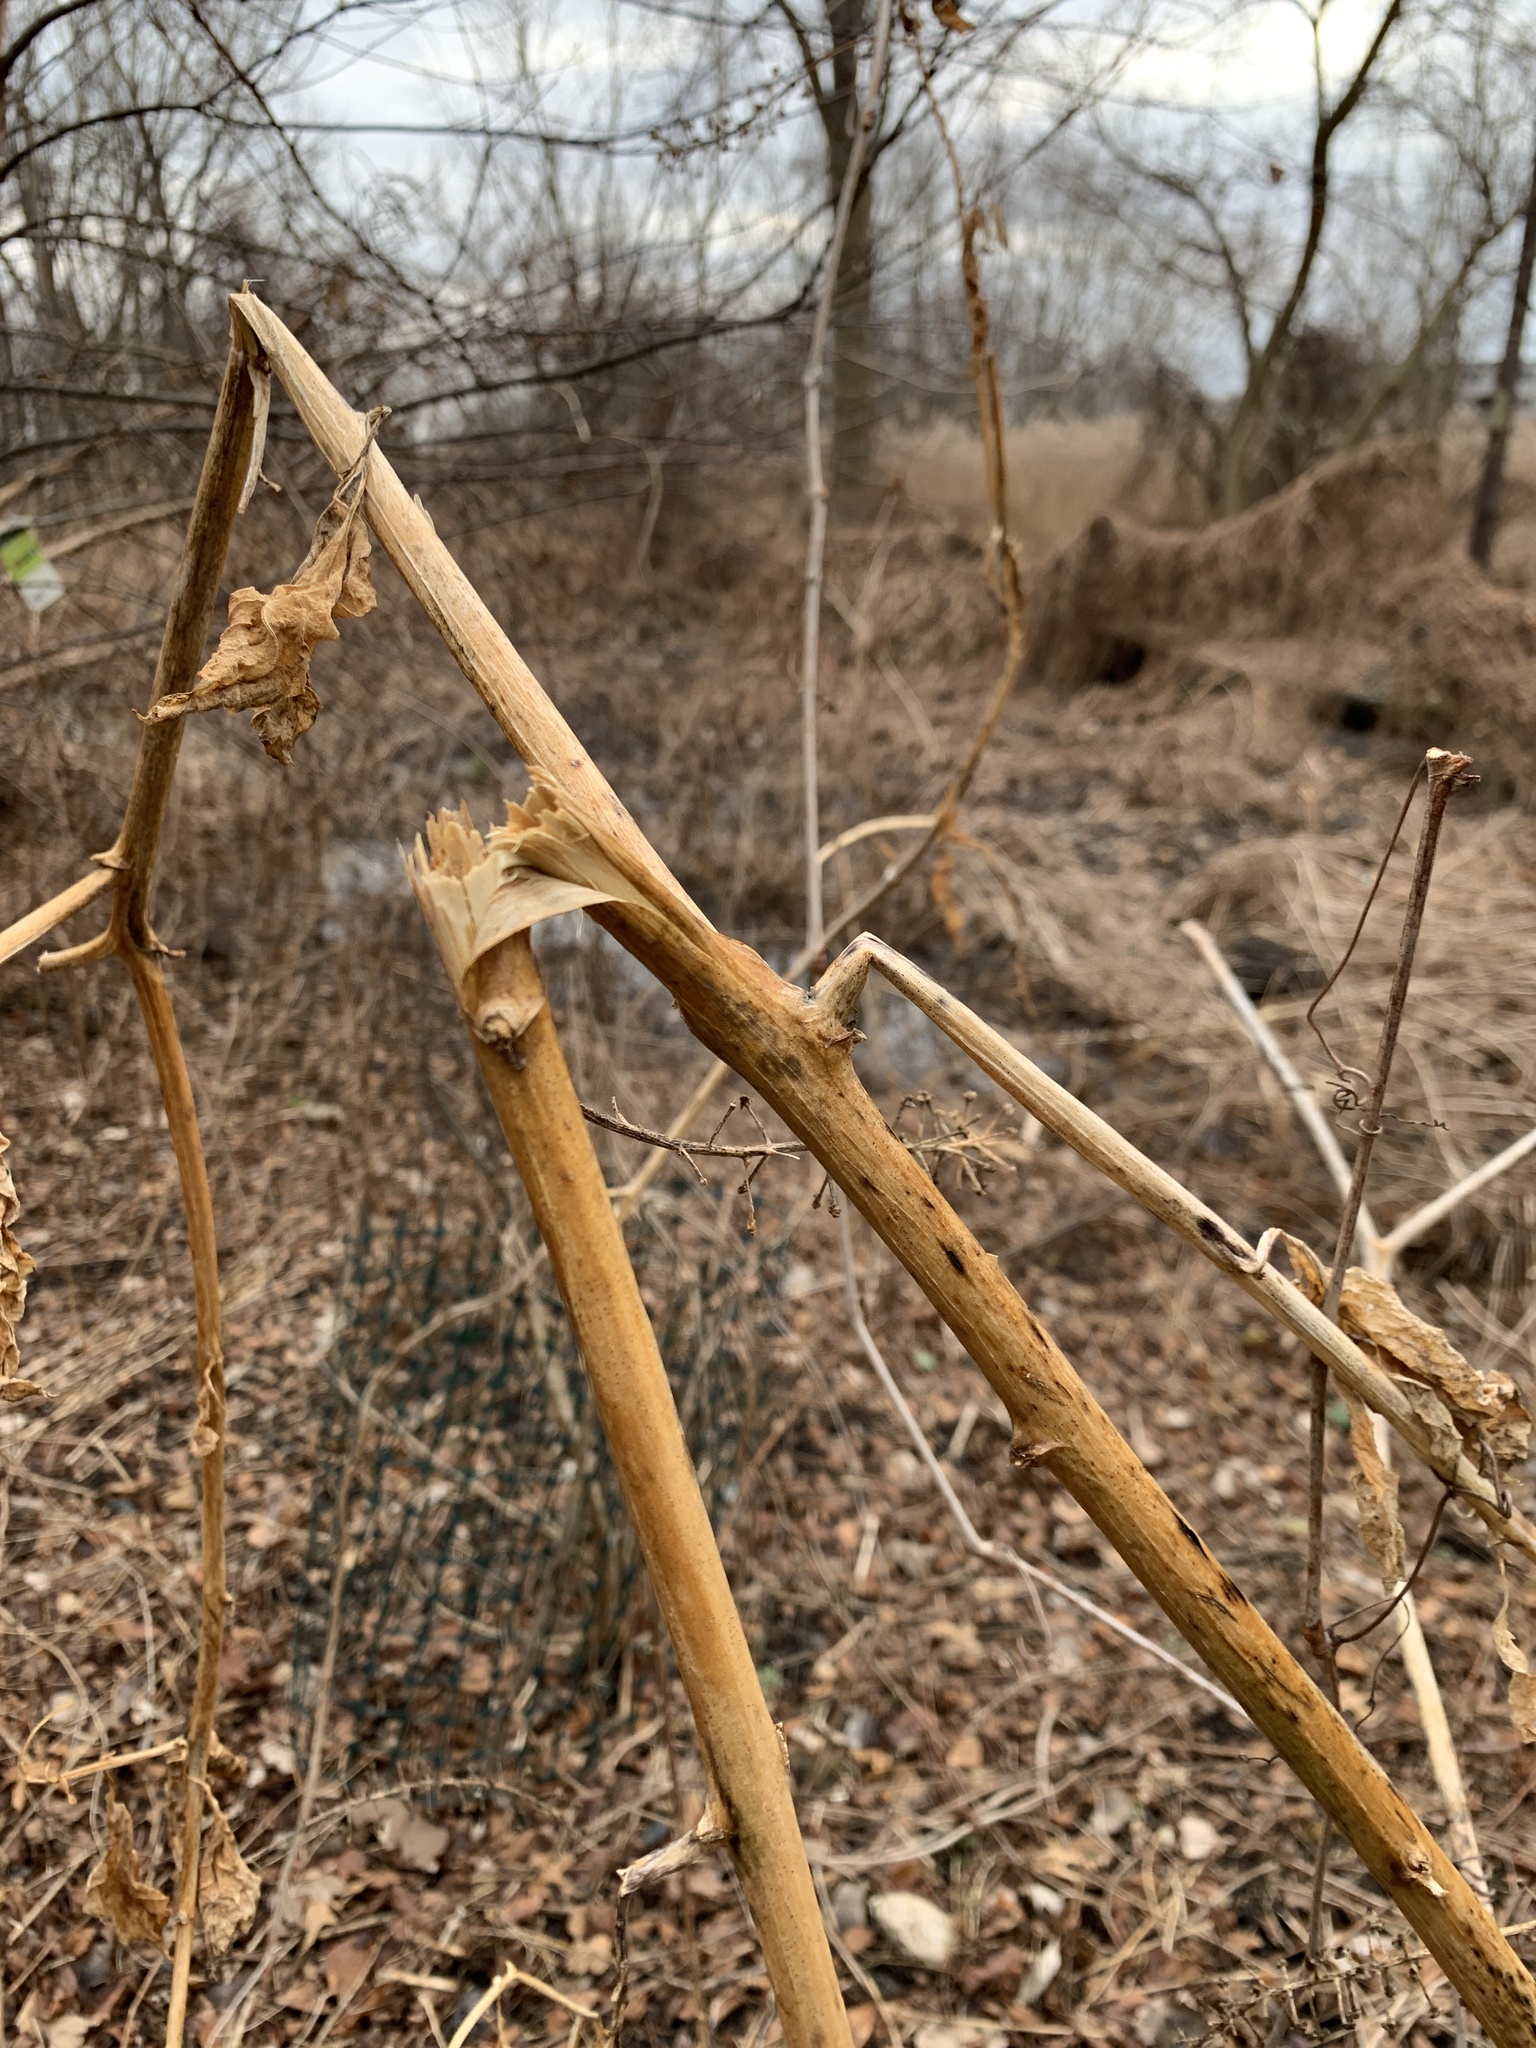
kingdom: Plantae
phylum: Tracheophyta
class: Magnoliopsida
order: Caryophyllales
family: Phytolaccaceae
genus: Phytolacca
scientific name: Phytolacca americana
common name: American pokeweed
